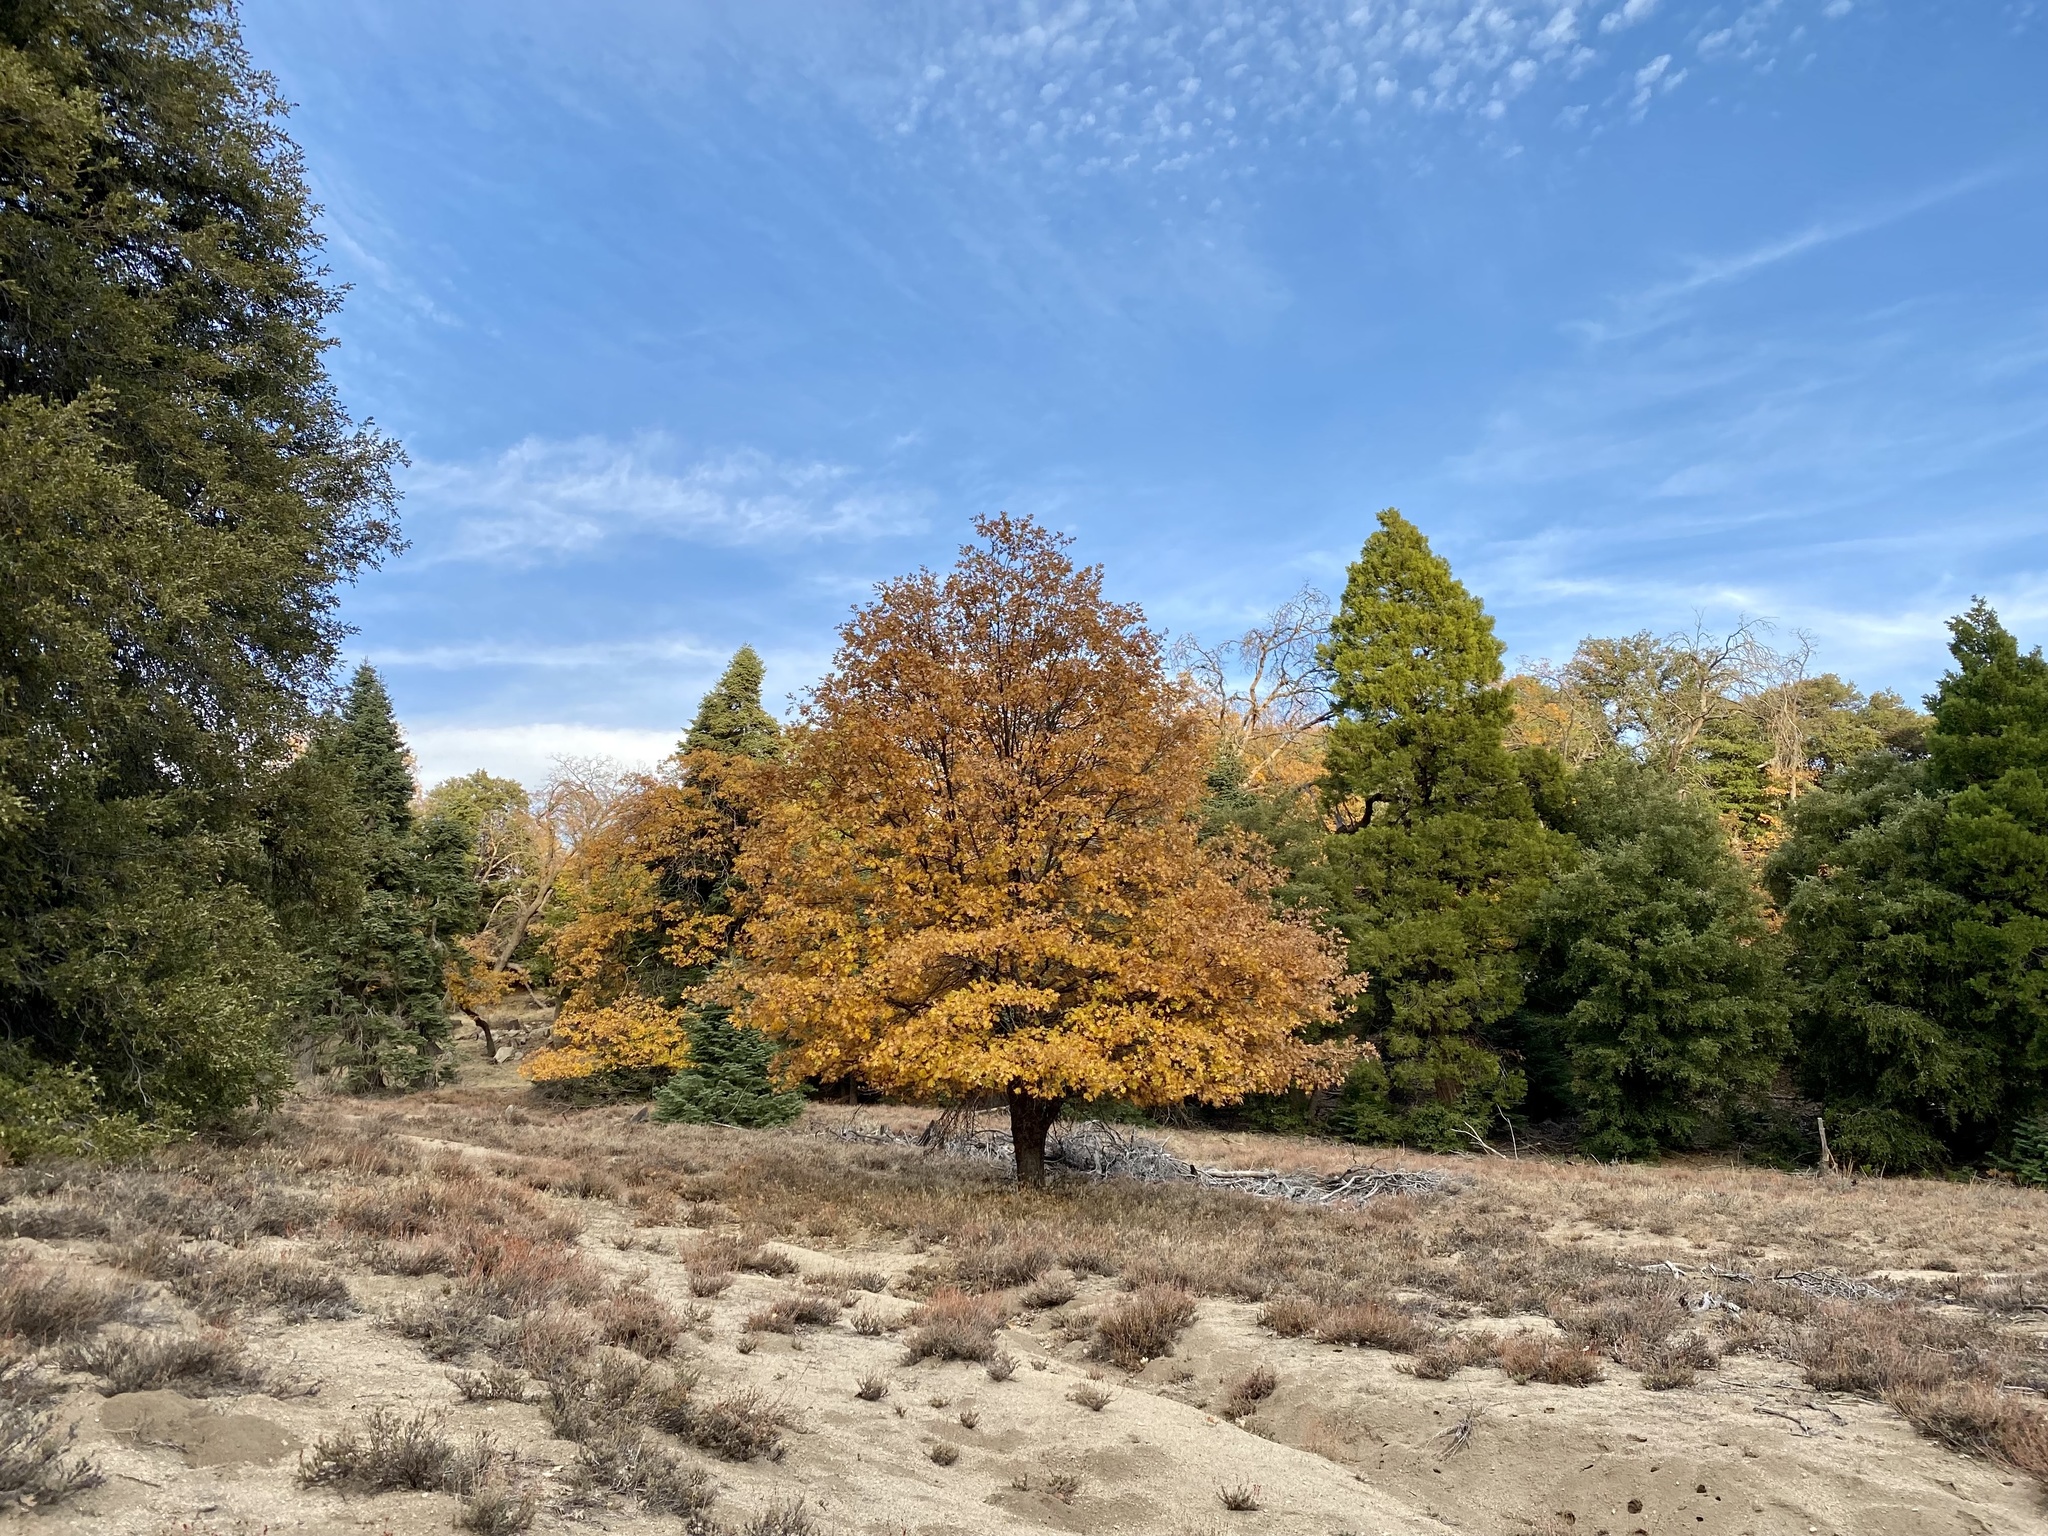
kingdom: Plantae
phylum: Tracheophyta
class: Magnoliopsida
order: Fagales
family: Fagaceae
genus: Quercus
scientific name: Quercus kelloggii
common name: California black oak
